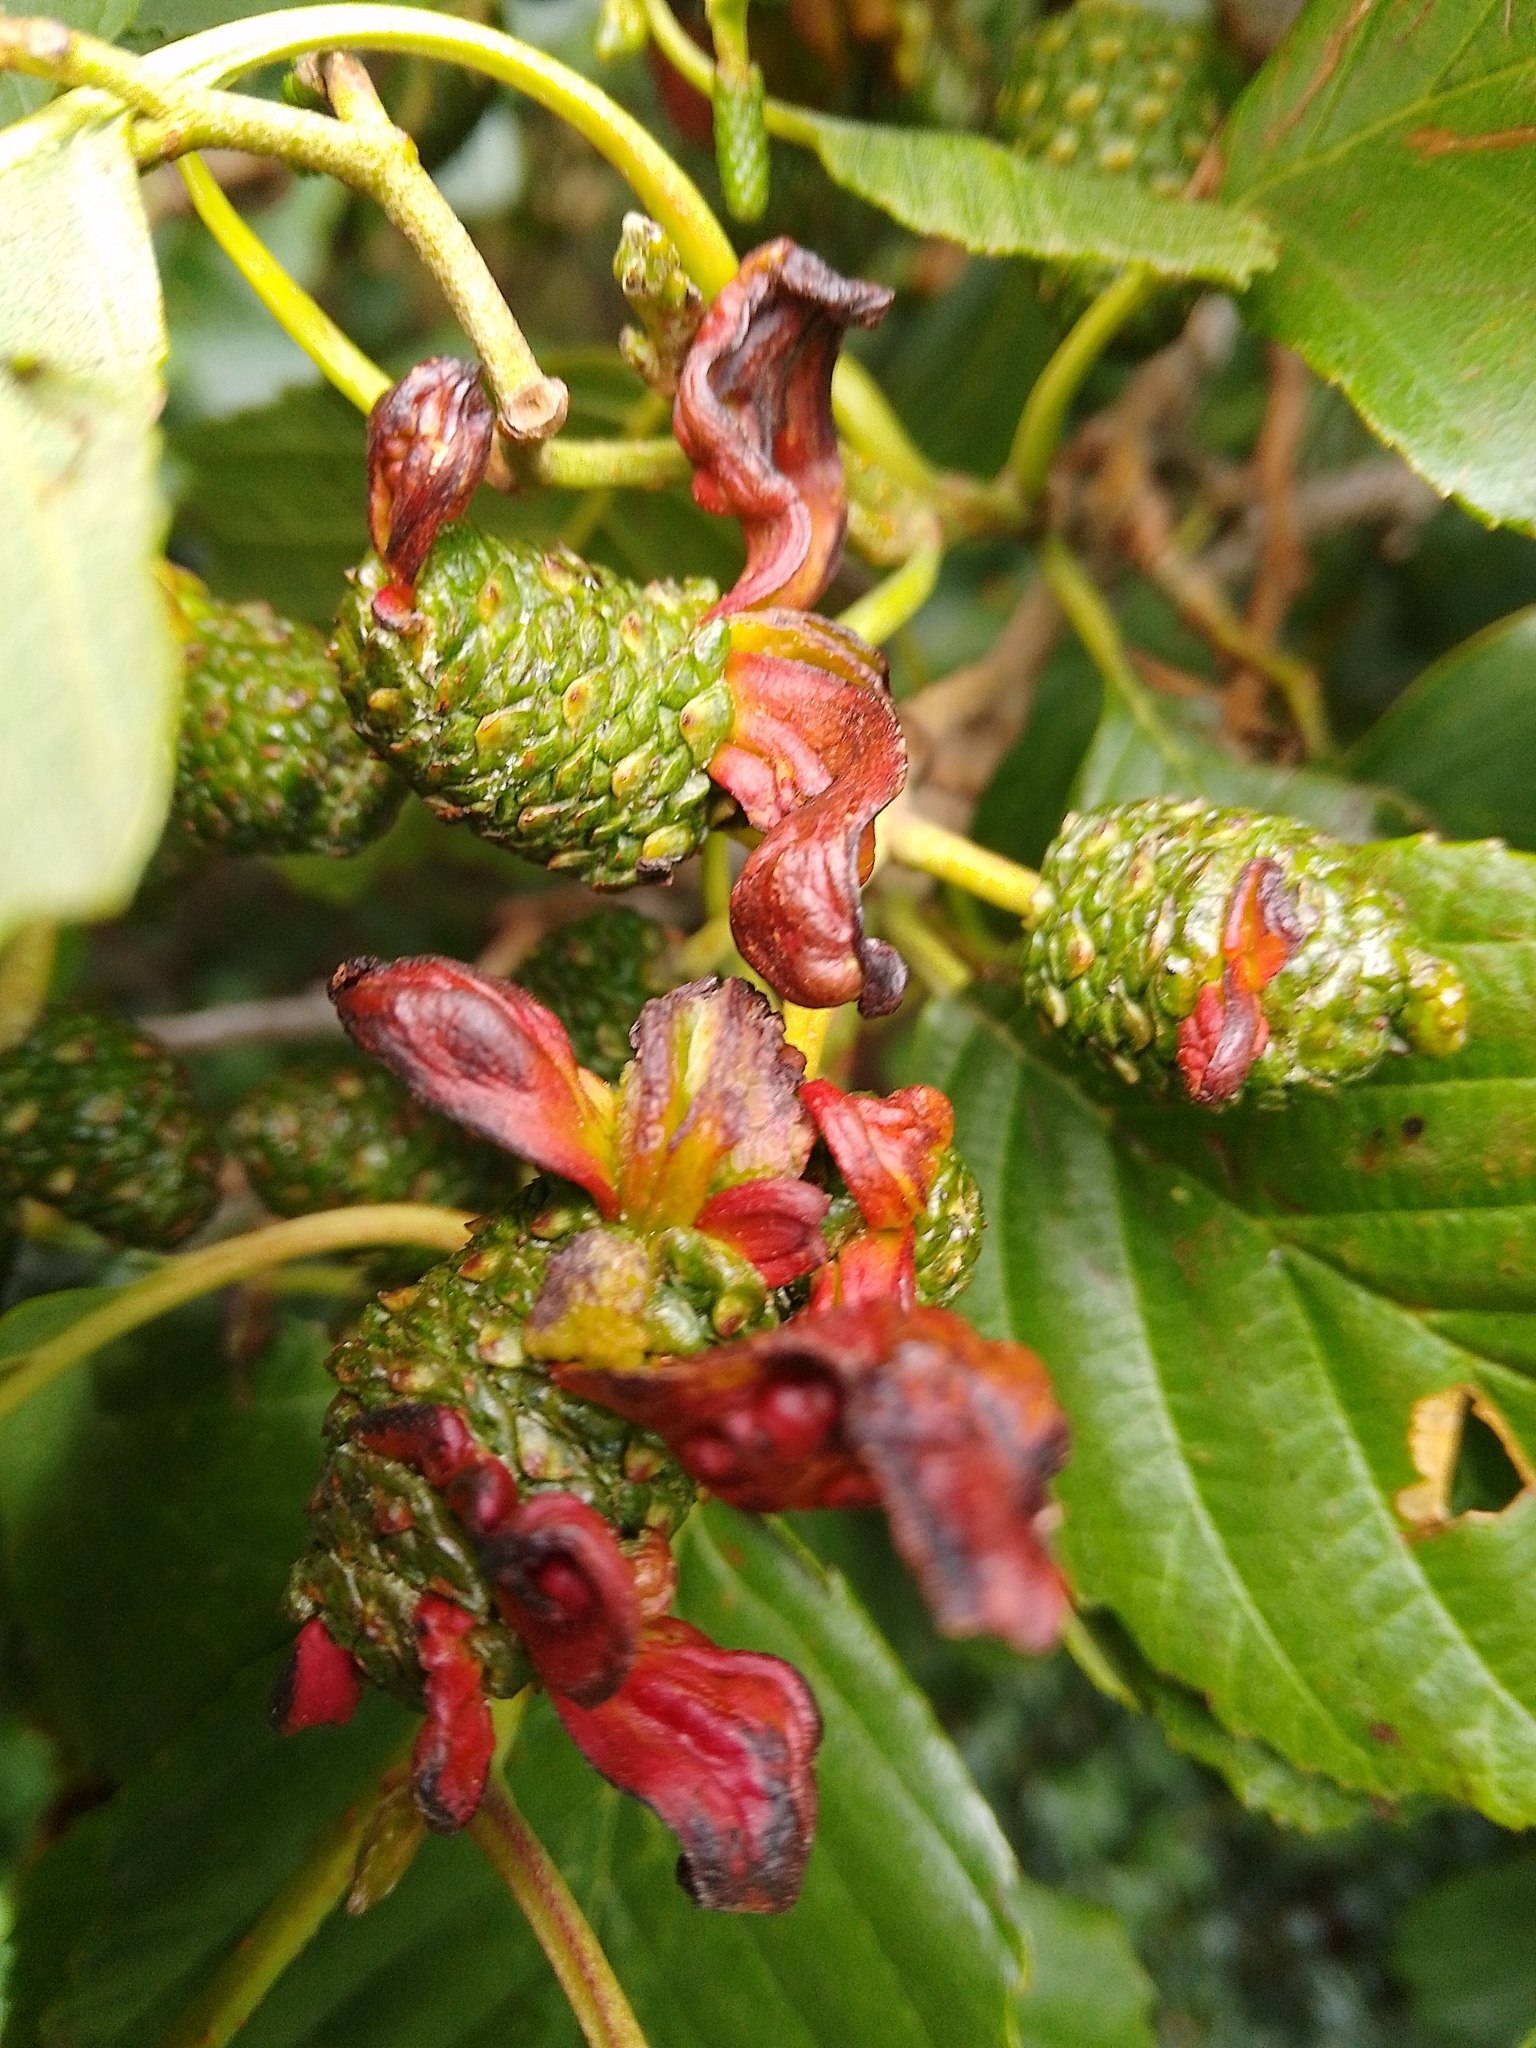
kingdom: Fungi
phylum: Ascomycota
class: Taphrinomycetes
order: Taphrinales
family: Taphrinaceae
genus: Taphrina
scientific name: Taphrina alni
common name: Alder tongue
